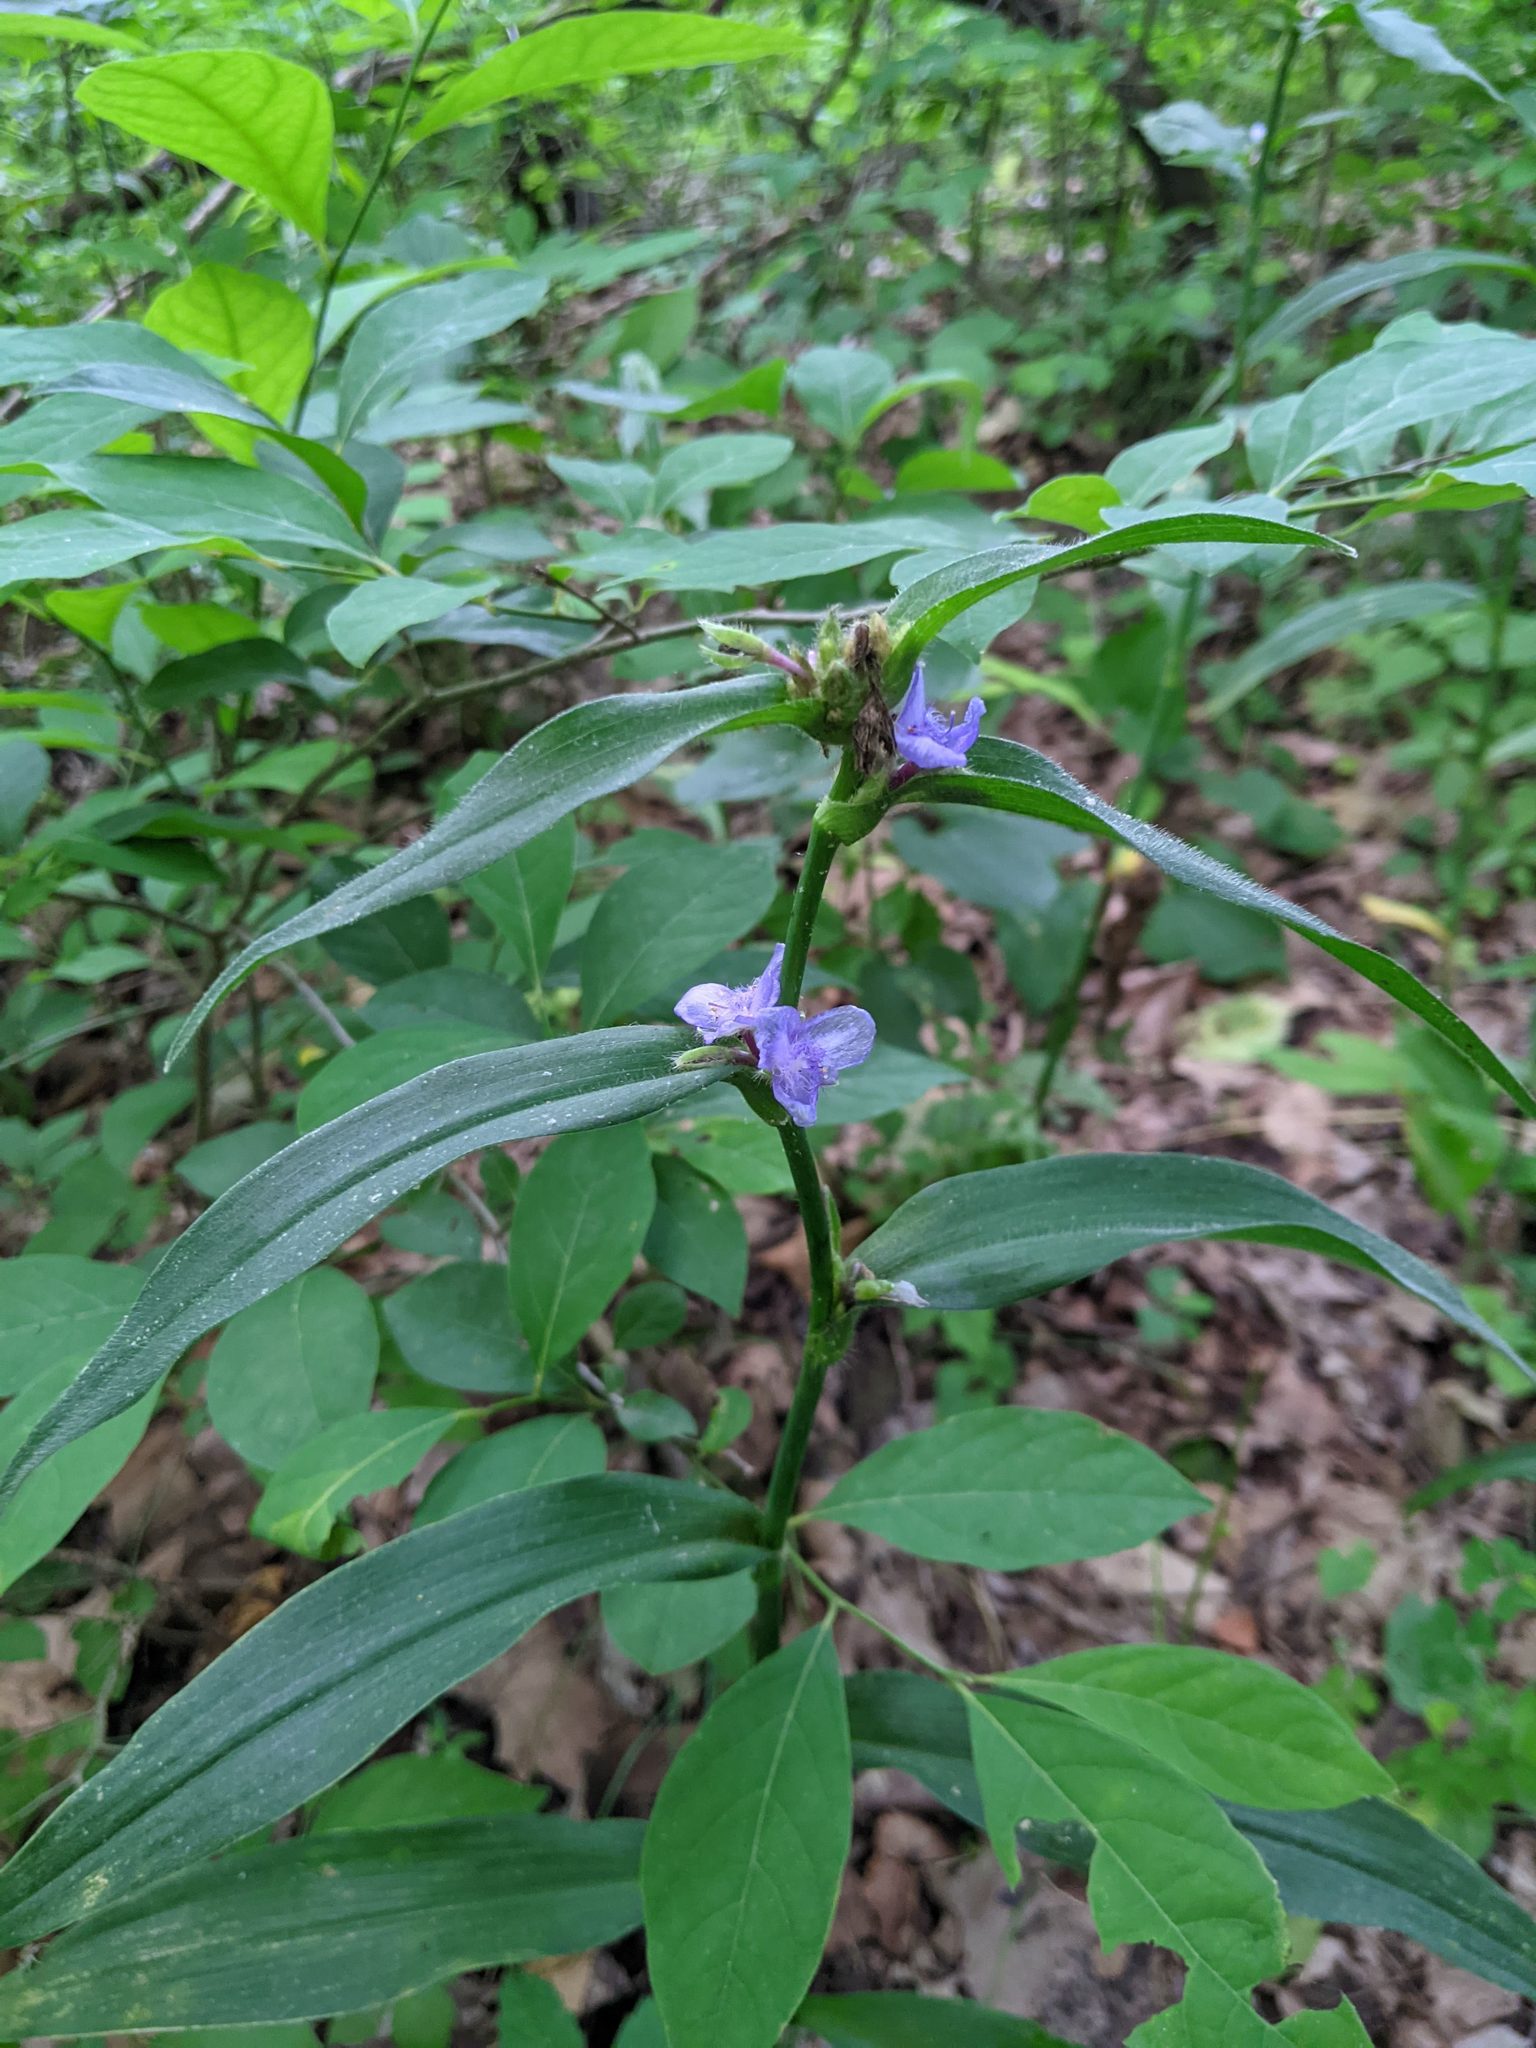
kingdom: Plantae
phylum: Tracheophyta
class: Liliopsida
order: Commelinales
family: Commelinaceae
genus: Tradescantia
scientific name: Tradescantia subaspera
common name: Wide-leaf spiderwort
